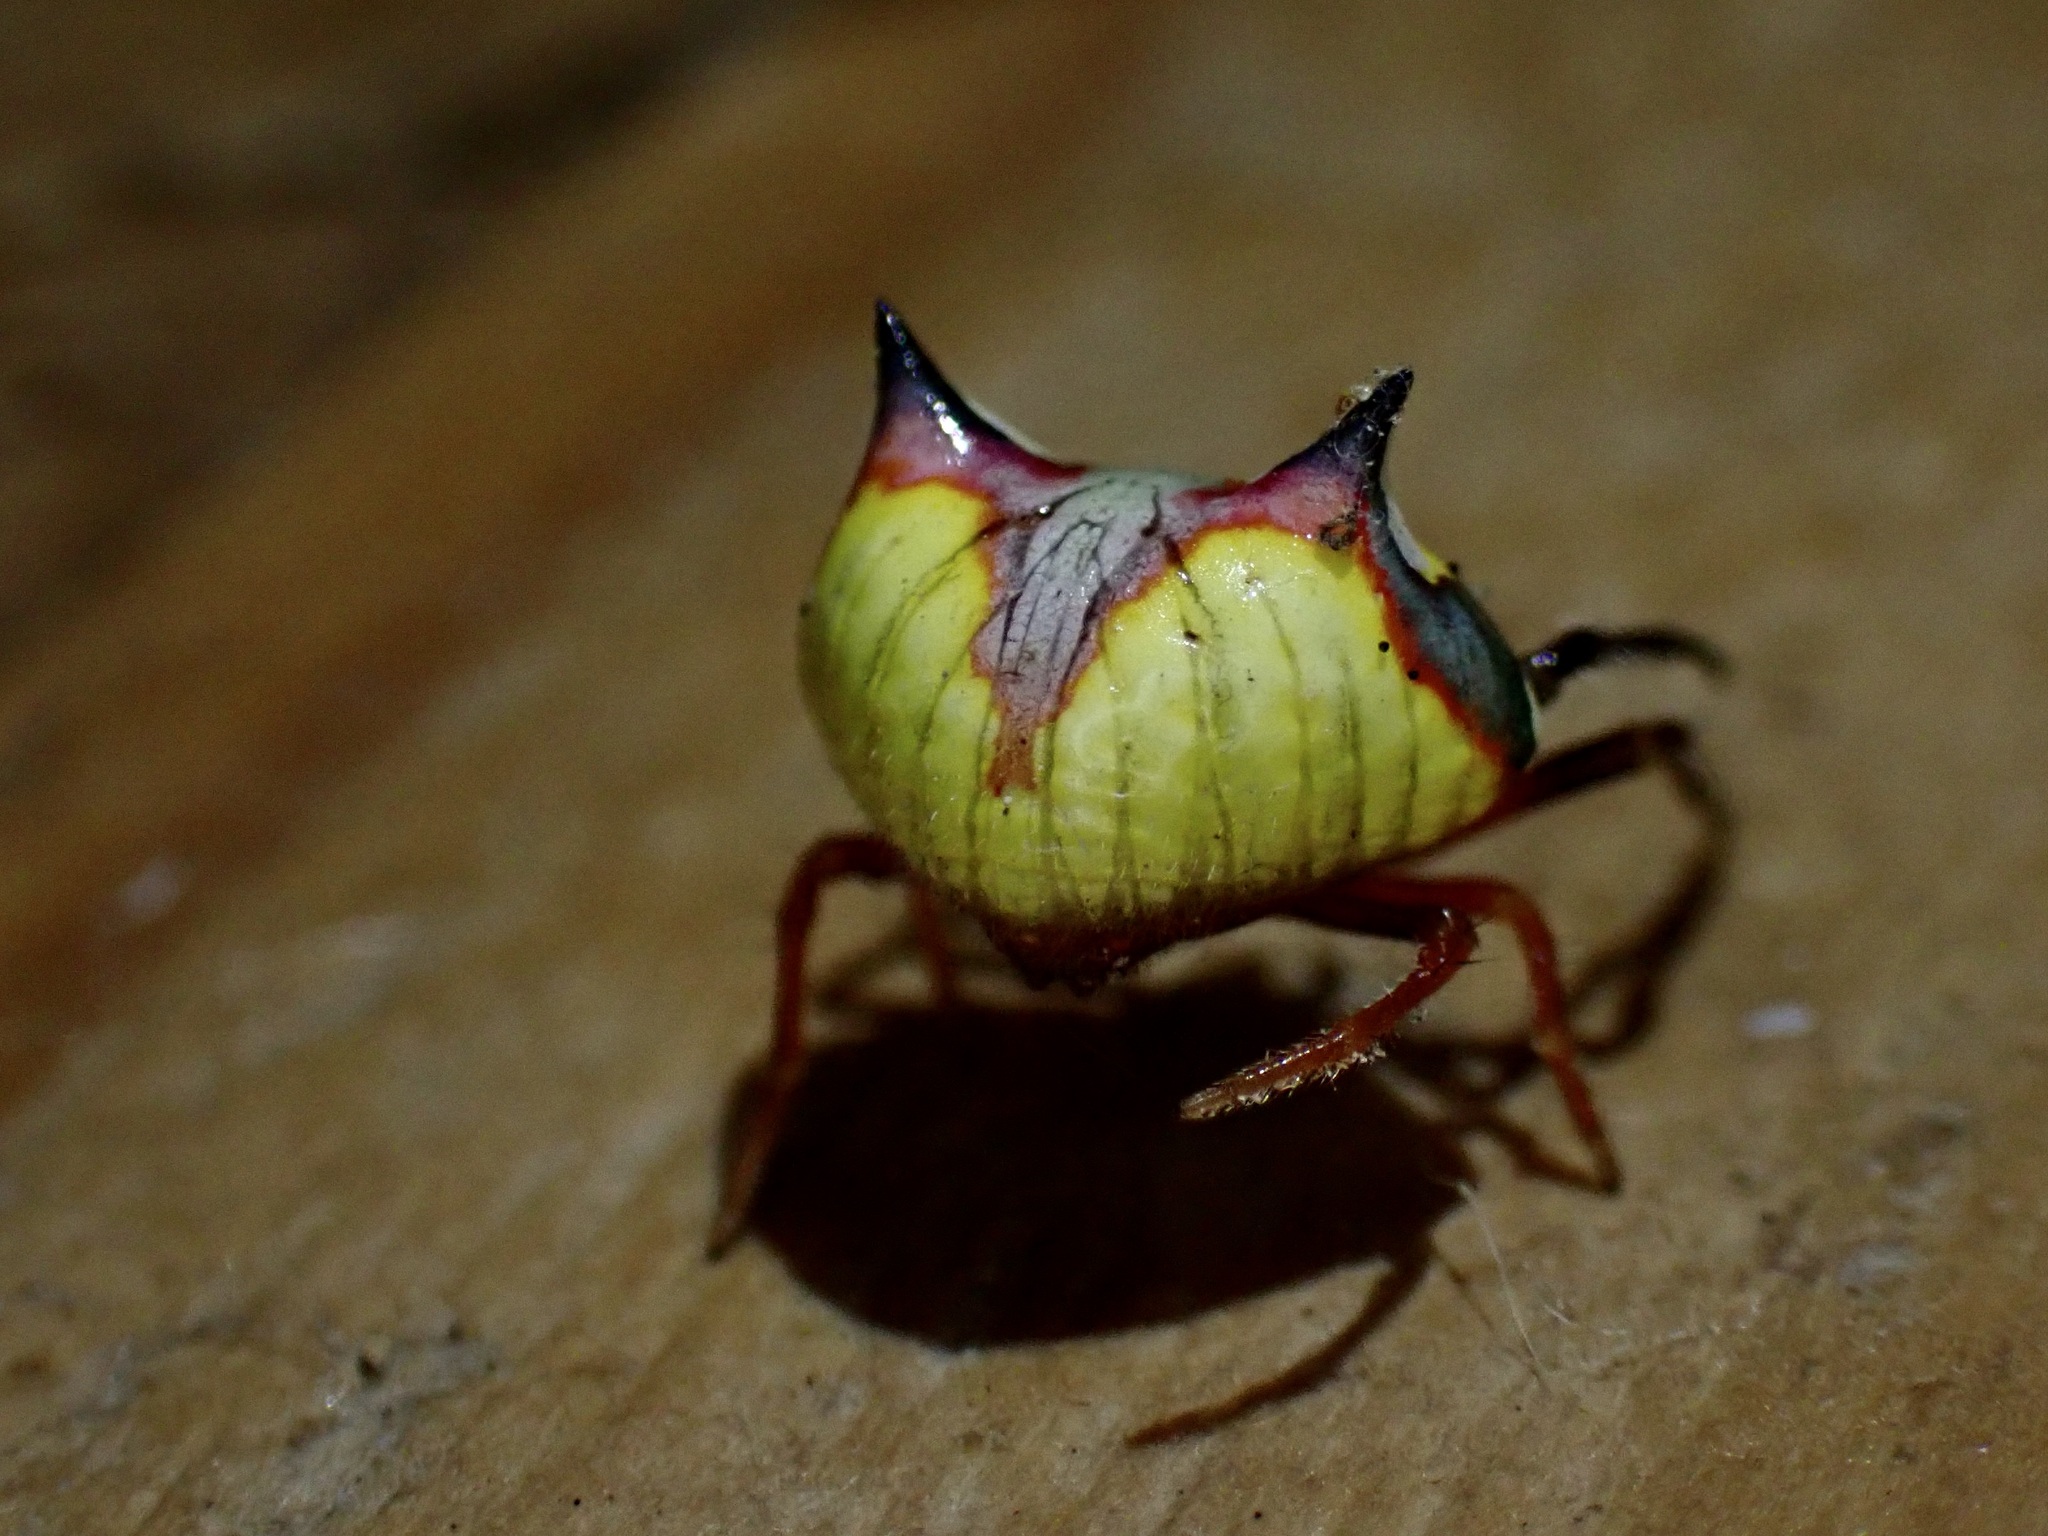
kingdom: Animalia
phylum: Arthropoda
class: Arachnida
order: Araneae
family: Araneidae
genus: Poecilopachys
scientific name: Poecilopachys australasia
